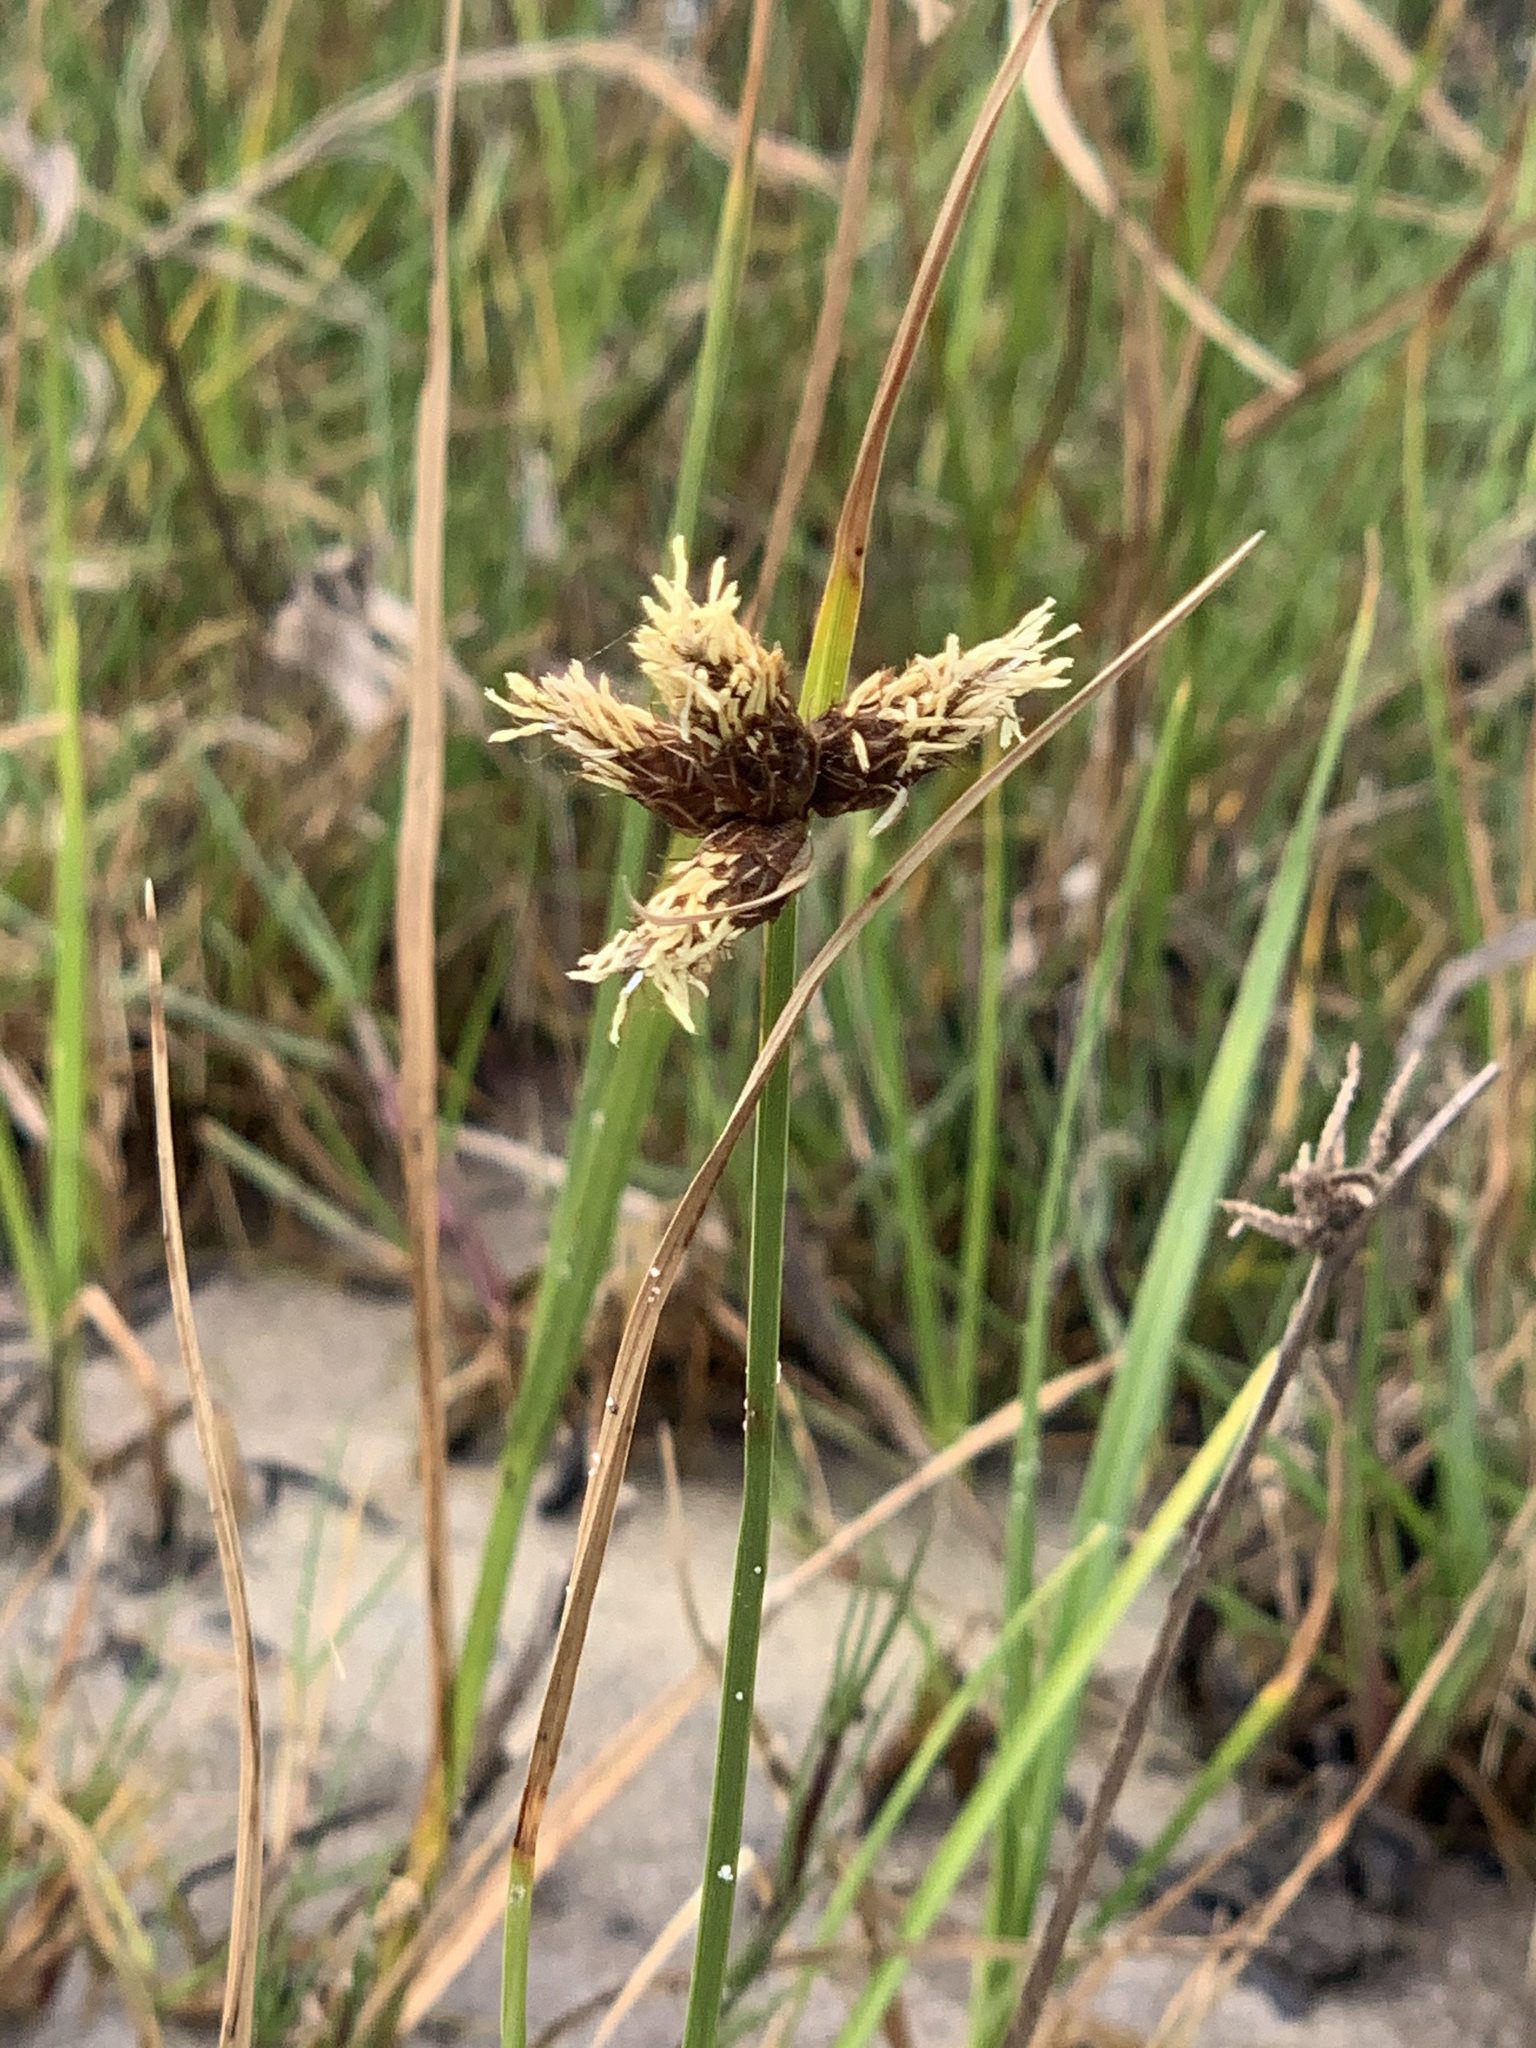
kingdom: Plantae
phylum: Tracheophyta
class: Liliopsida
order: Poales
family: Cyperaceae
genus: Bolboschoenus
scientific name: Bolboschoenus maritimus
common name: Sea club-rush
